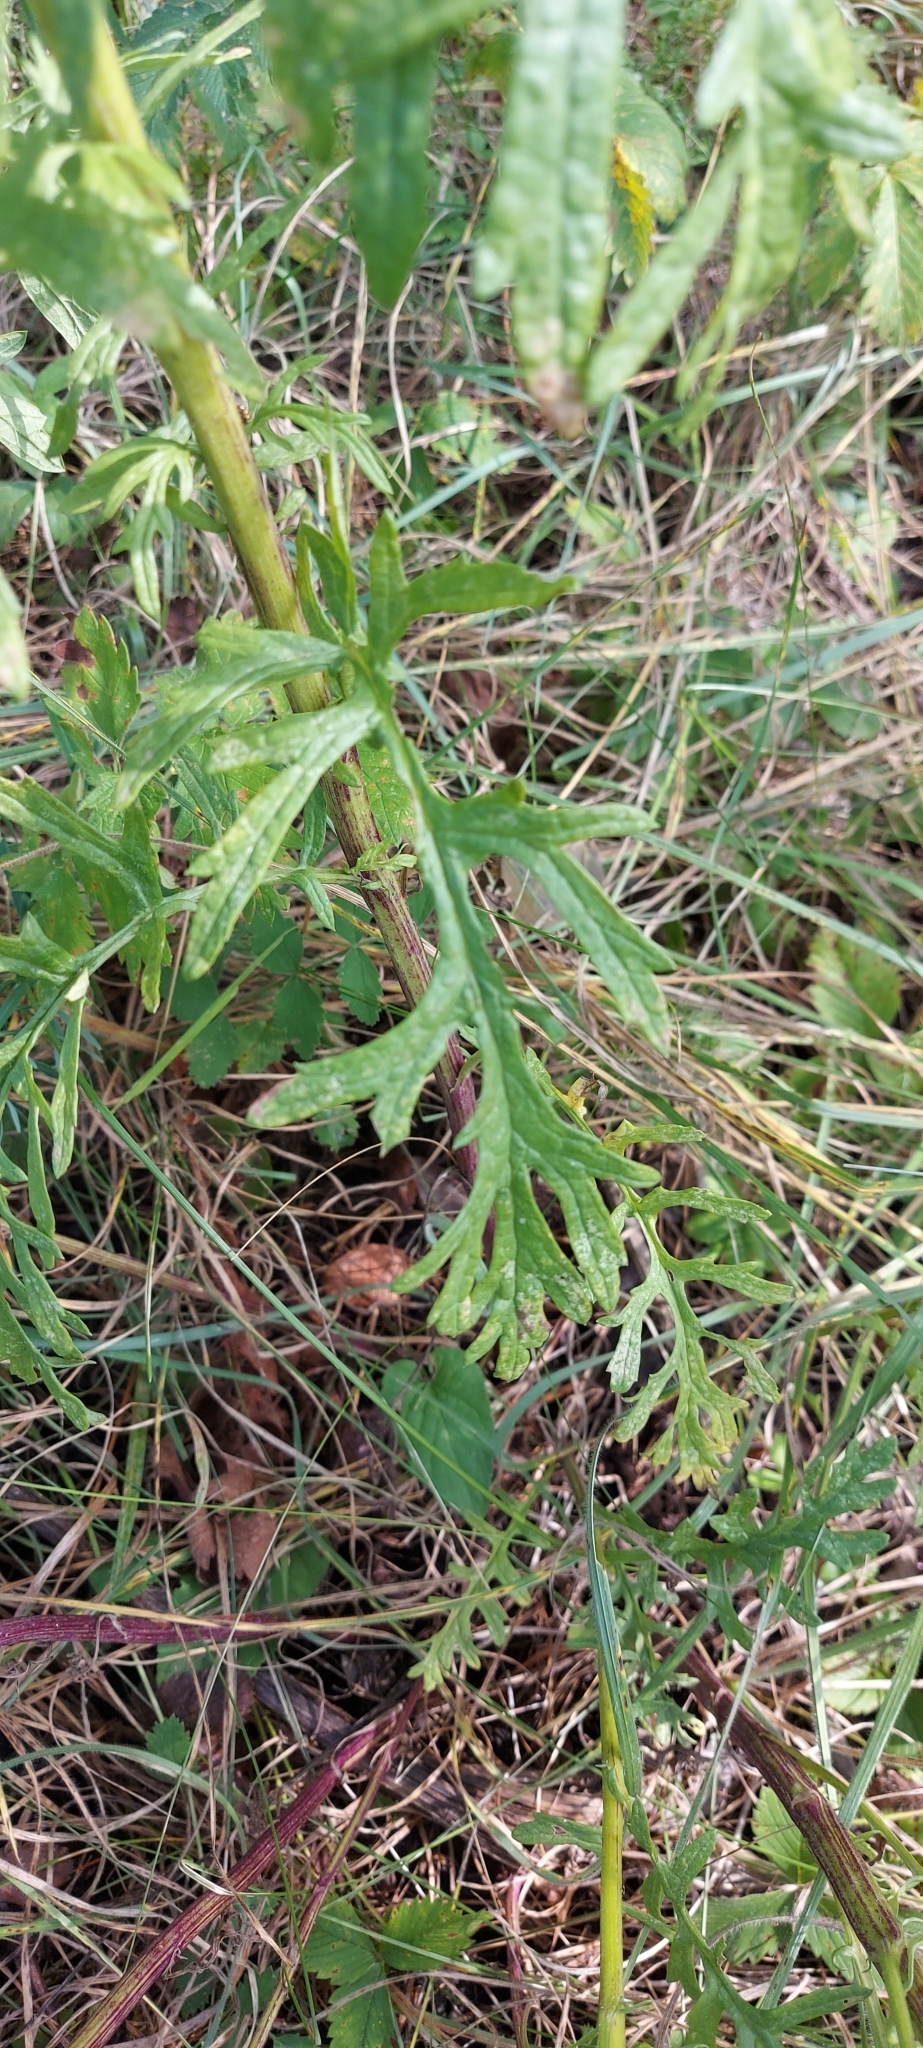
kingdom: Plantae
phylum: Tracheophyta
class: Magnoliopsida
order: Asterales
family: Asteraceae
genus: Jacobaea
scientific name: Jacobaea erucifolia
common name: Hoary ragwort
